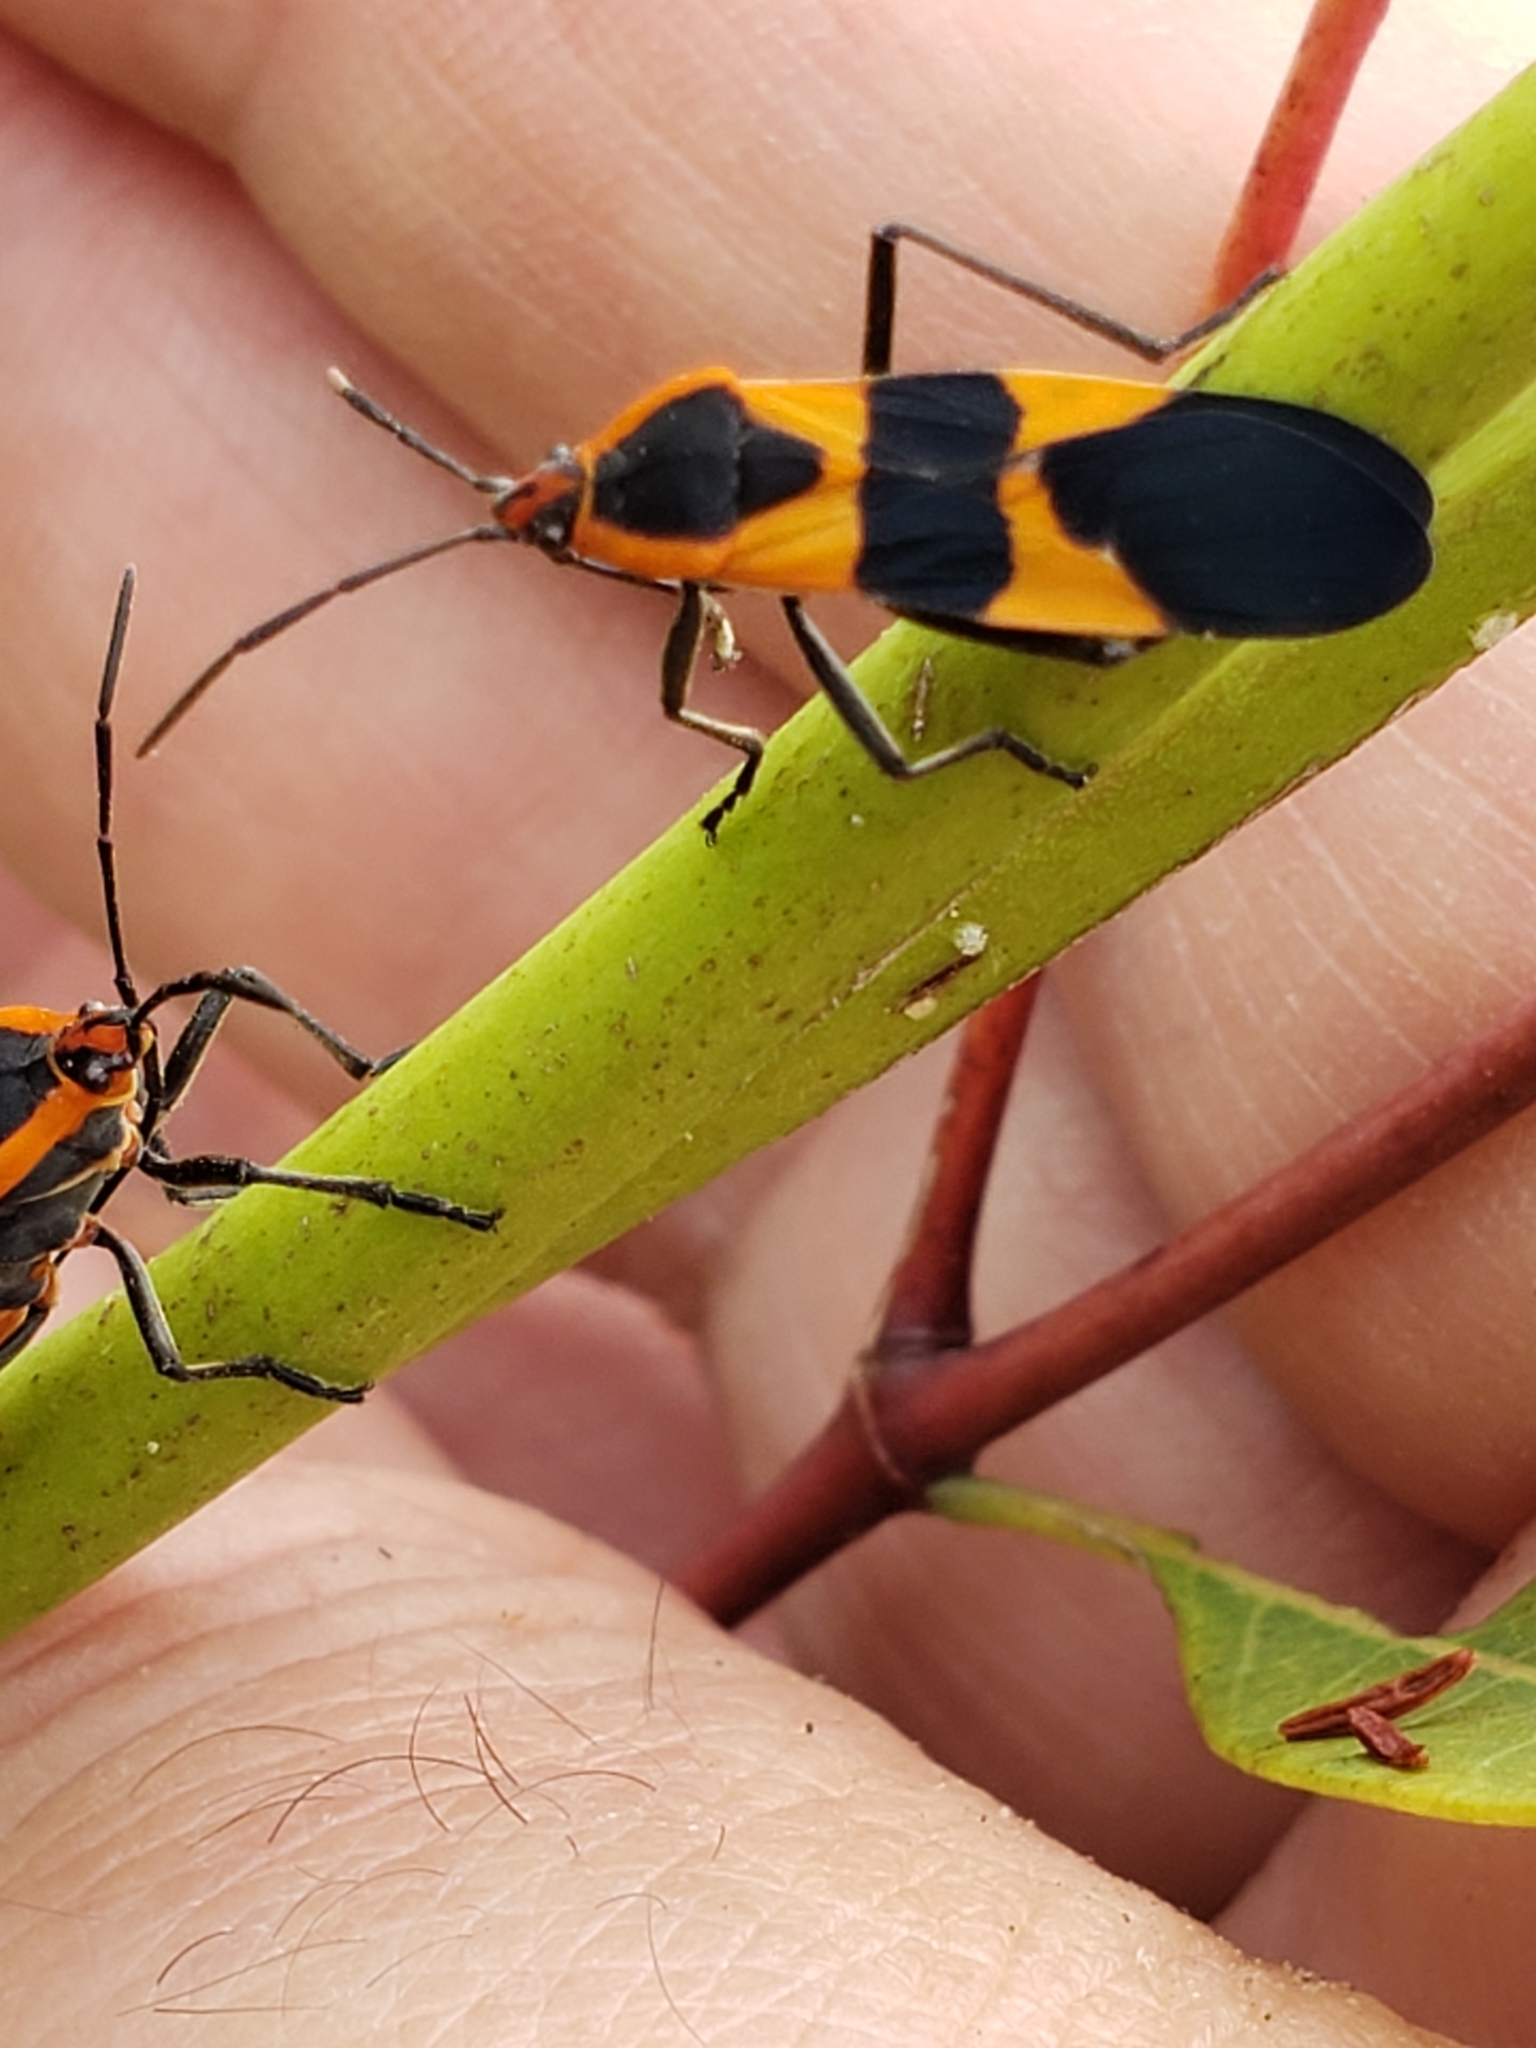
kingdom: Animalia
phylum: Arthropoda
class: Insecta
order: Hemiptera
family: Lygaeidae
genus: Oncopeltus
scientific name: Oncopeltus fasciatus
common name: Large milkweed bug
